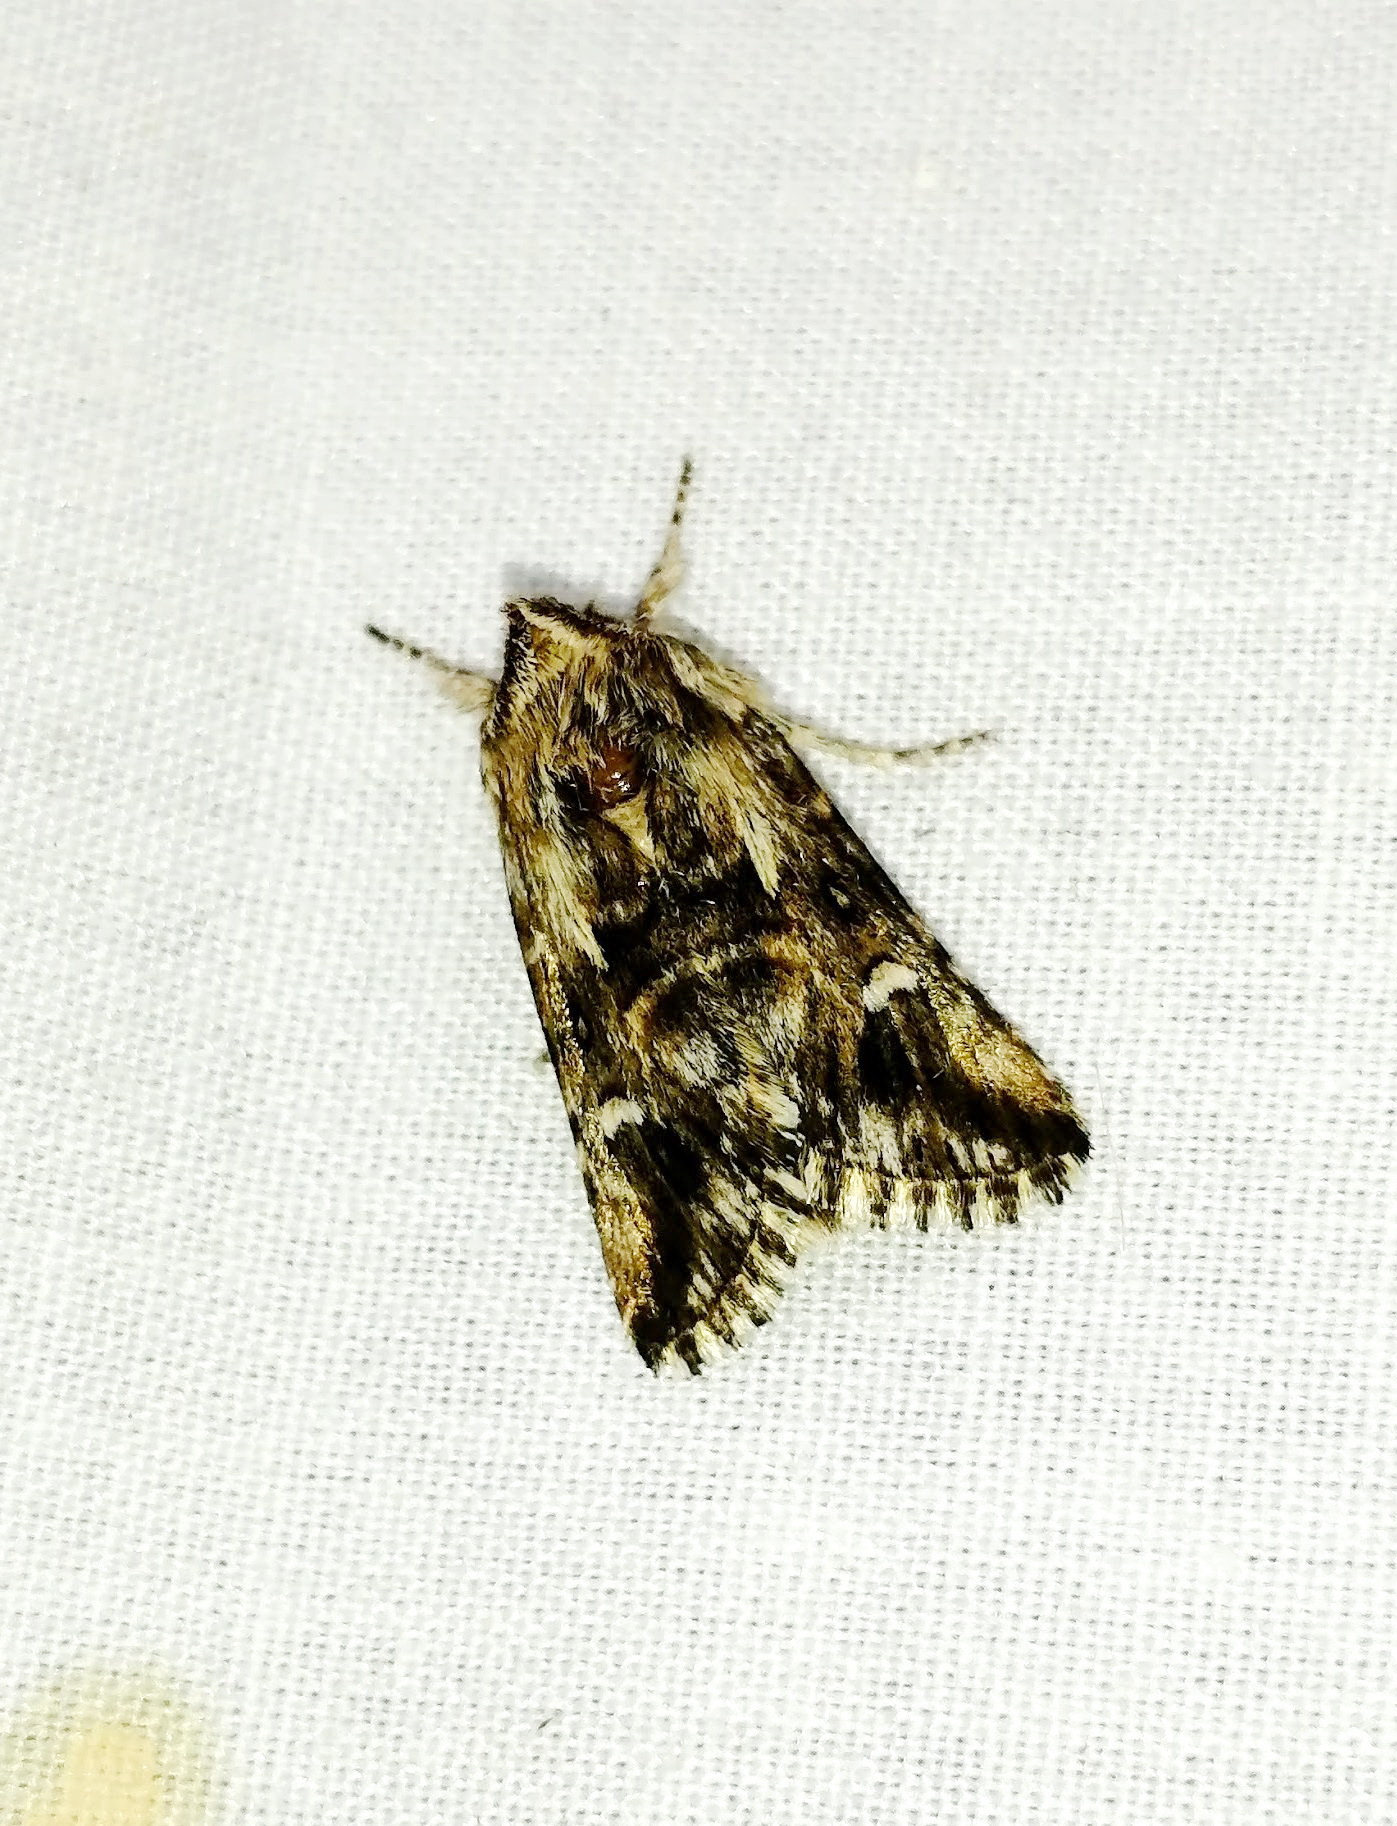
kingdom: Animalia
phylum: Arthropoda
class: Insecta
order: Lepidoptera
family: Noctuidae
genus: Calophasia
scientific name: Calophasia lunula
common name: Toadflax brocade
